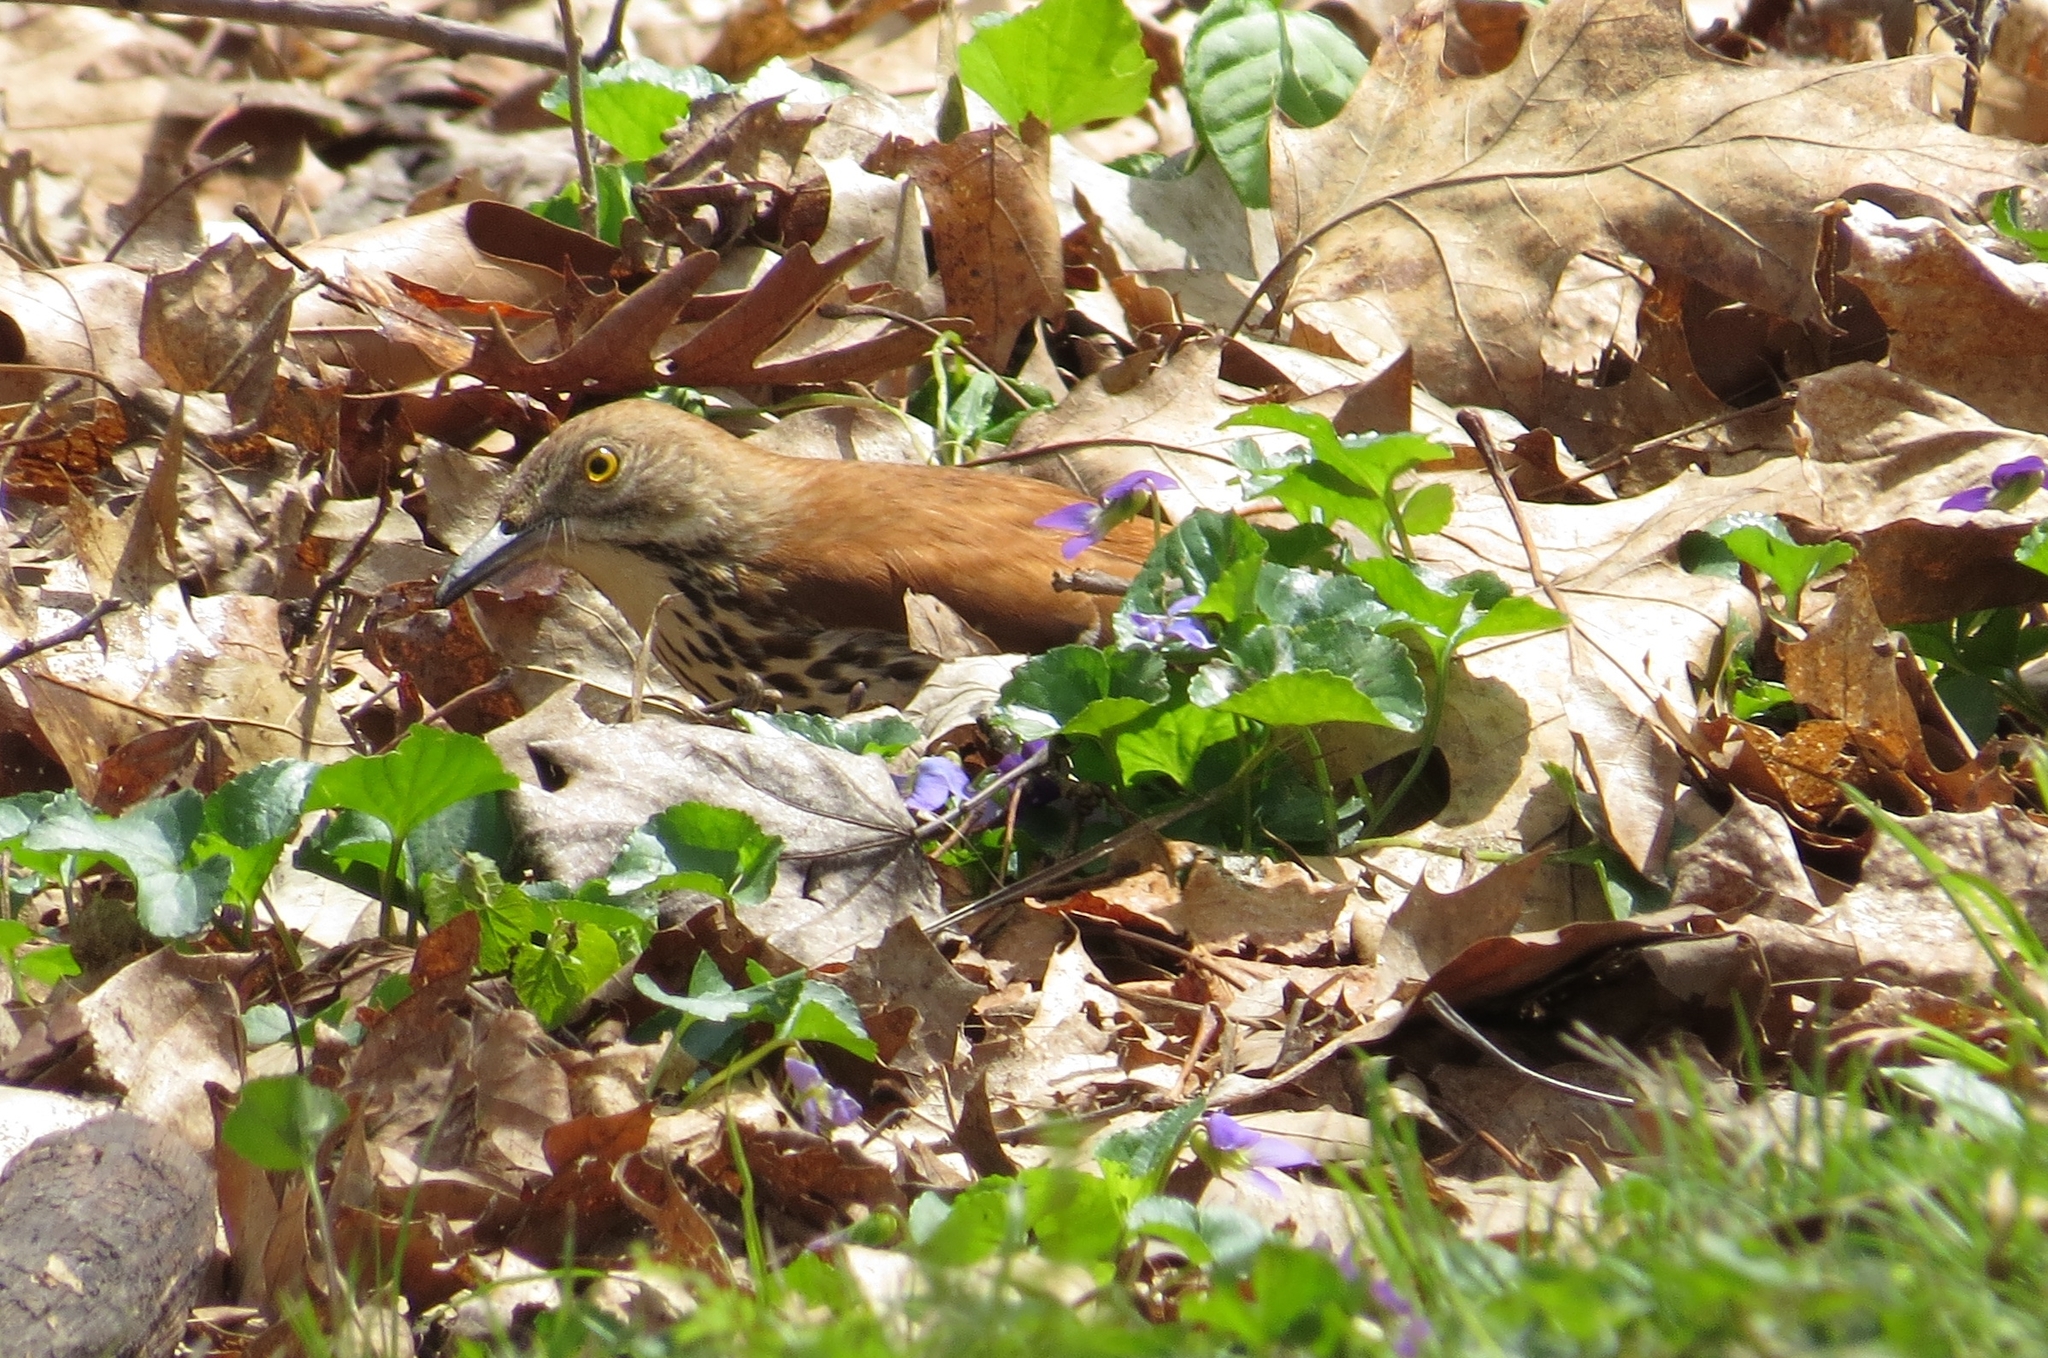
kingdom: Animalia
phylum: Chordata
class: Aves
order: Passeriformes
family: Mimidae
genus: Toxostoma
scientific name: Toxostoma rufum
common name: Brown thrasher
